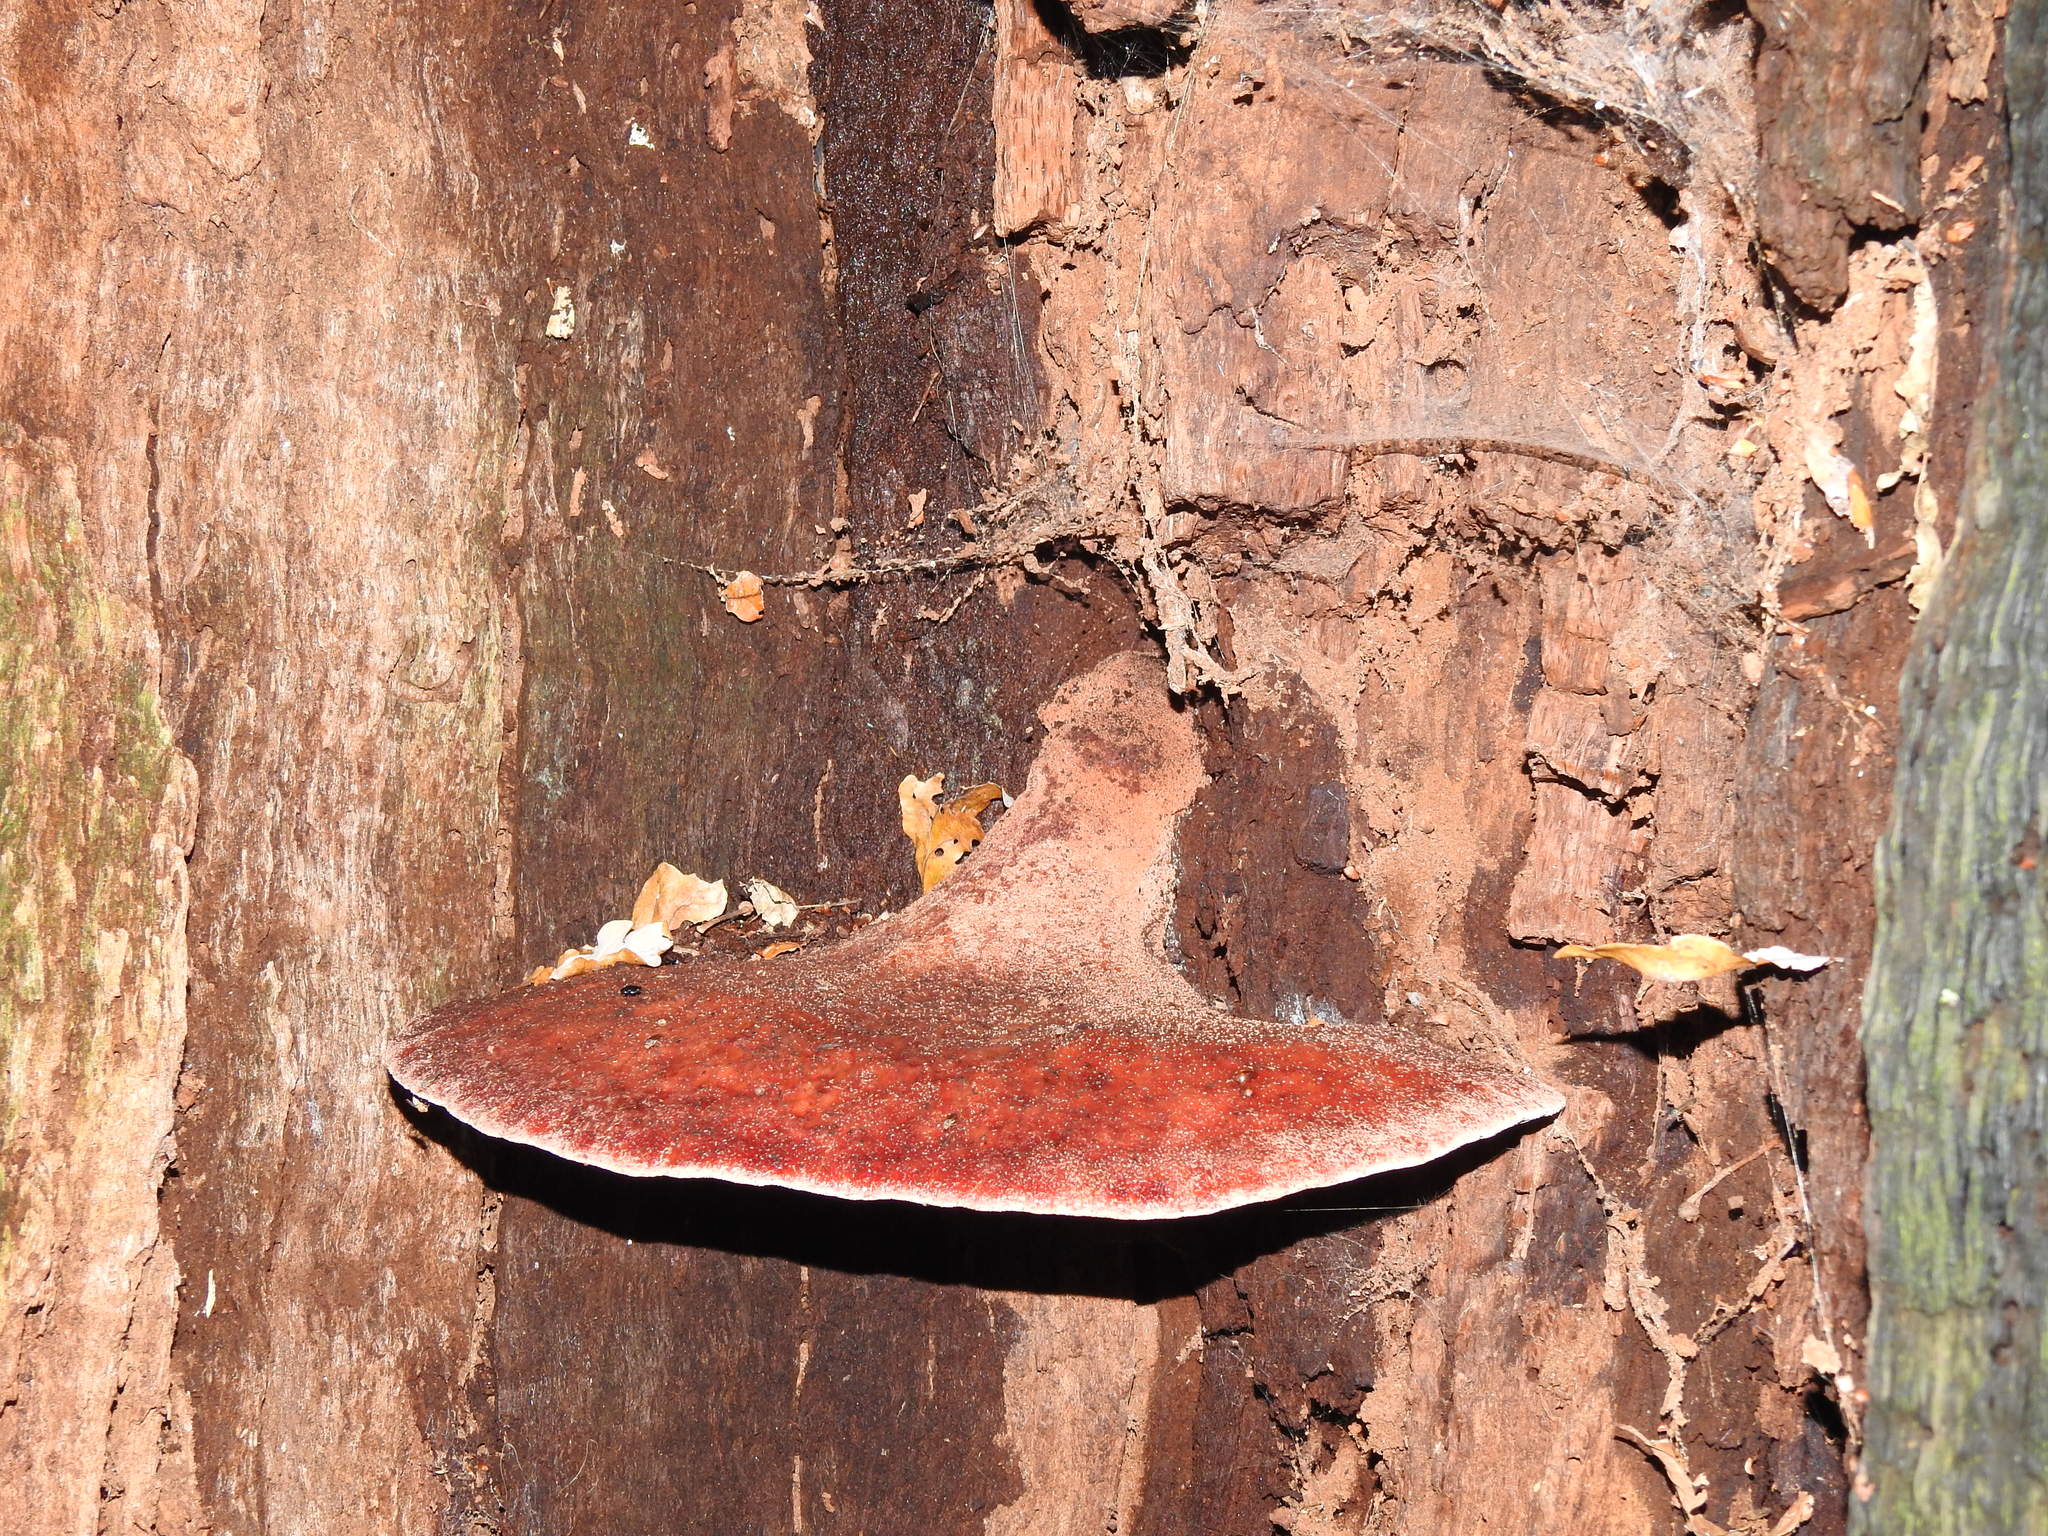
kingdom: Fungi
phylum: Basidiomycota
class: Agaricomycetes
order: Agaricales
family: Fistulinaceae
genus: Fistulina
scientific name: Fistulina hepatica
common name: Beef-steak fungus
